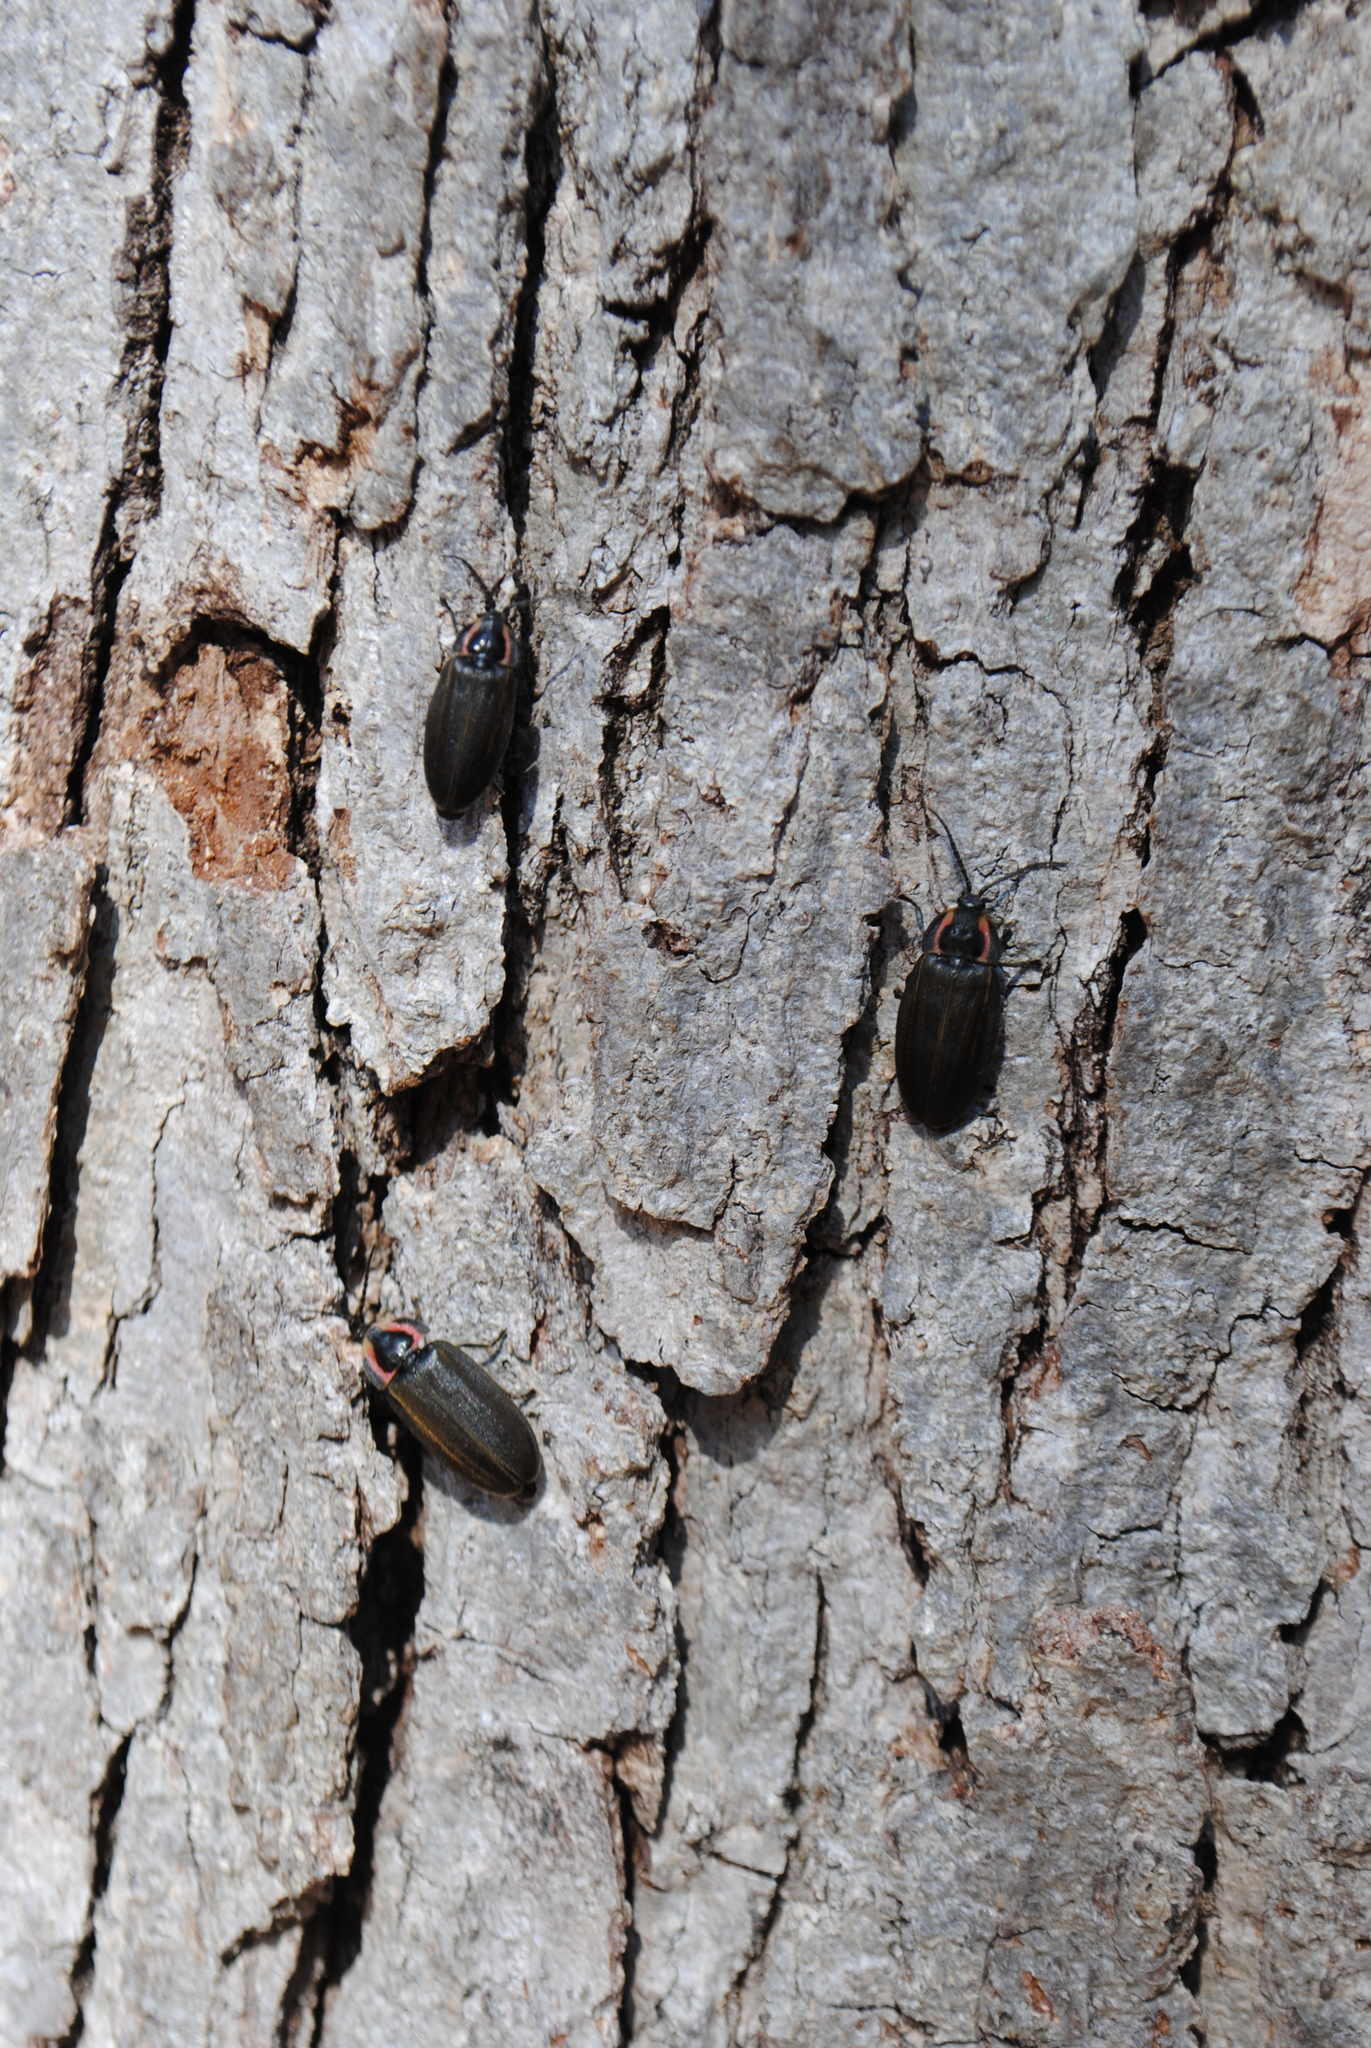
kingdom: Animalia
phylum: Arthropoda
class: Insecta
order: Coleoptera
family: Lampyridae
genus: Photinus
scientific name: Photinus corrusca
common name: Winter firefly
